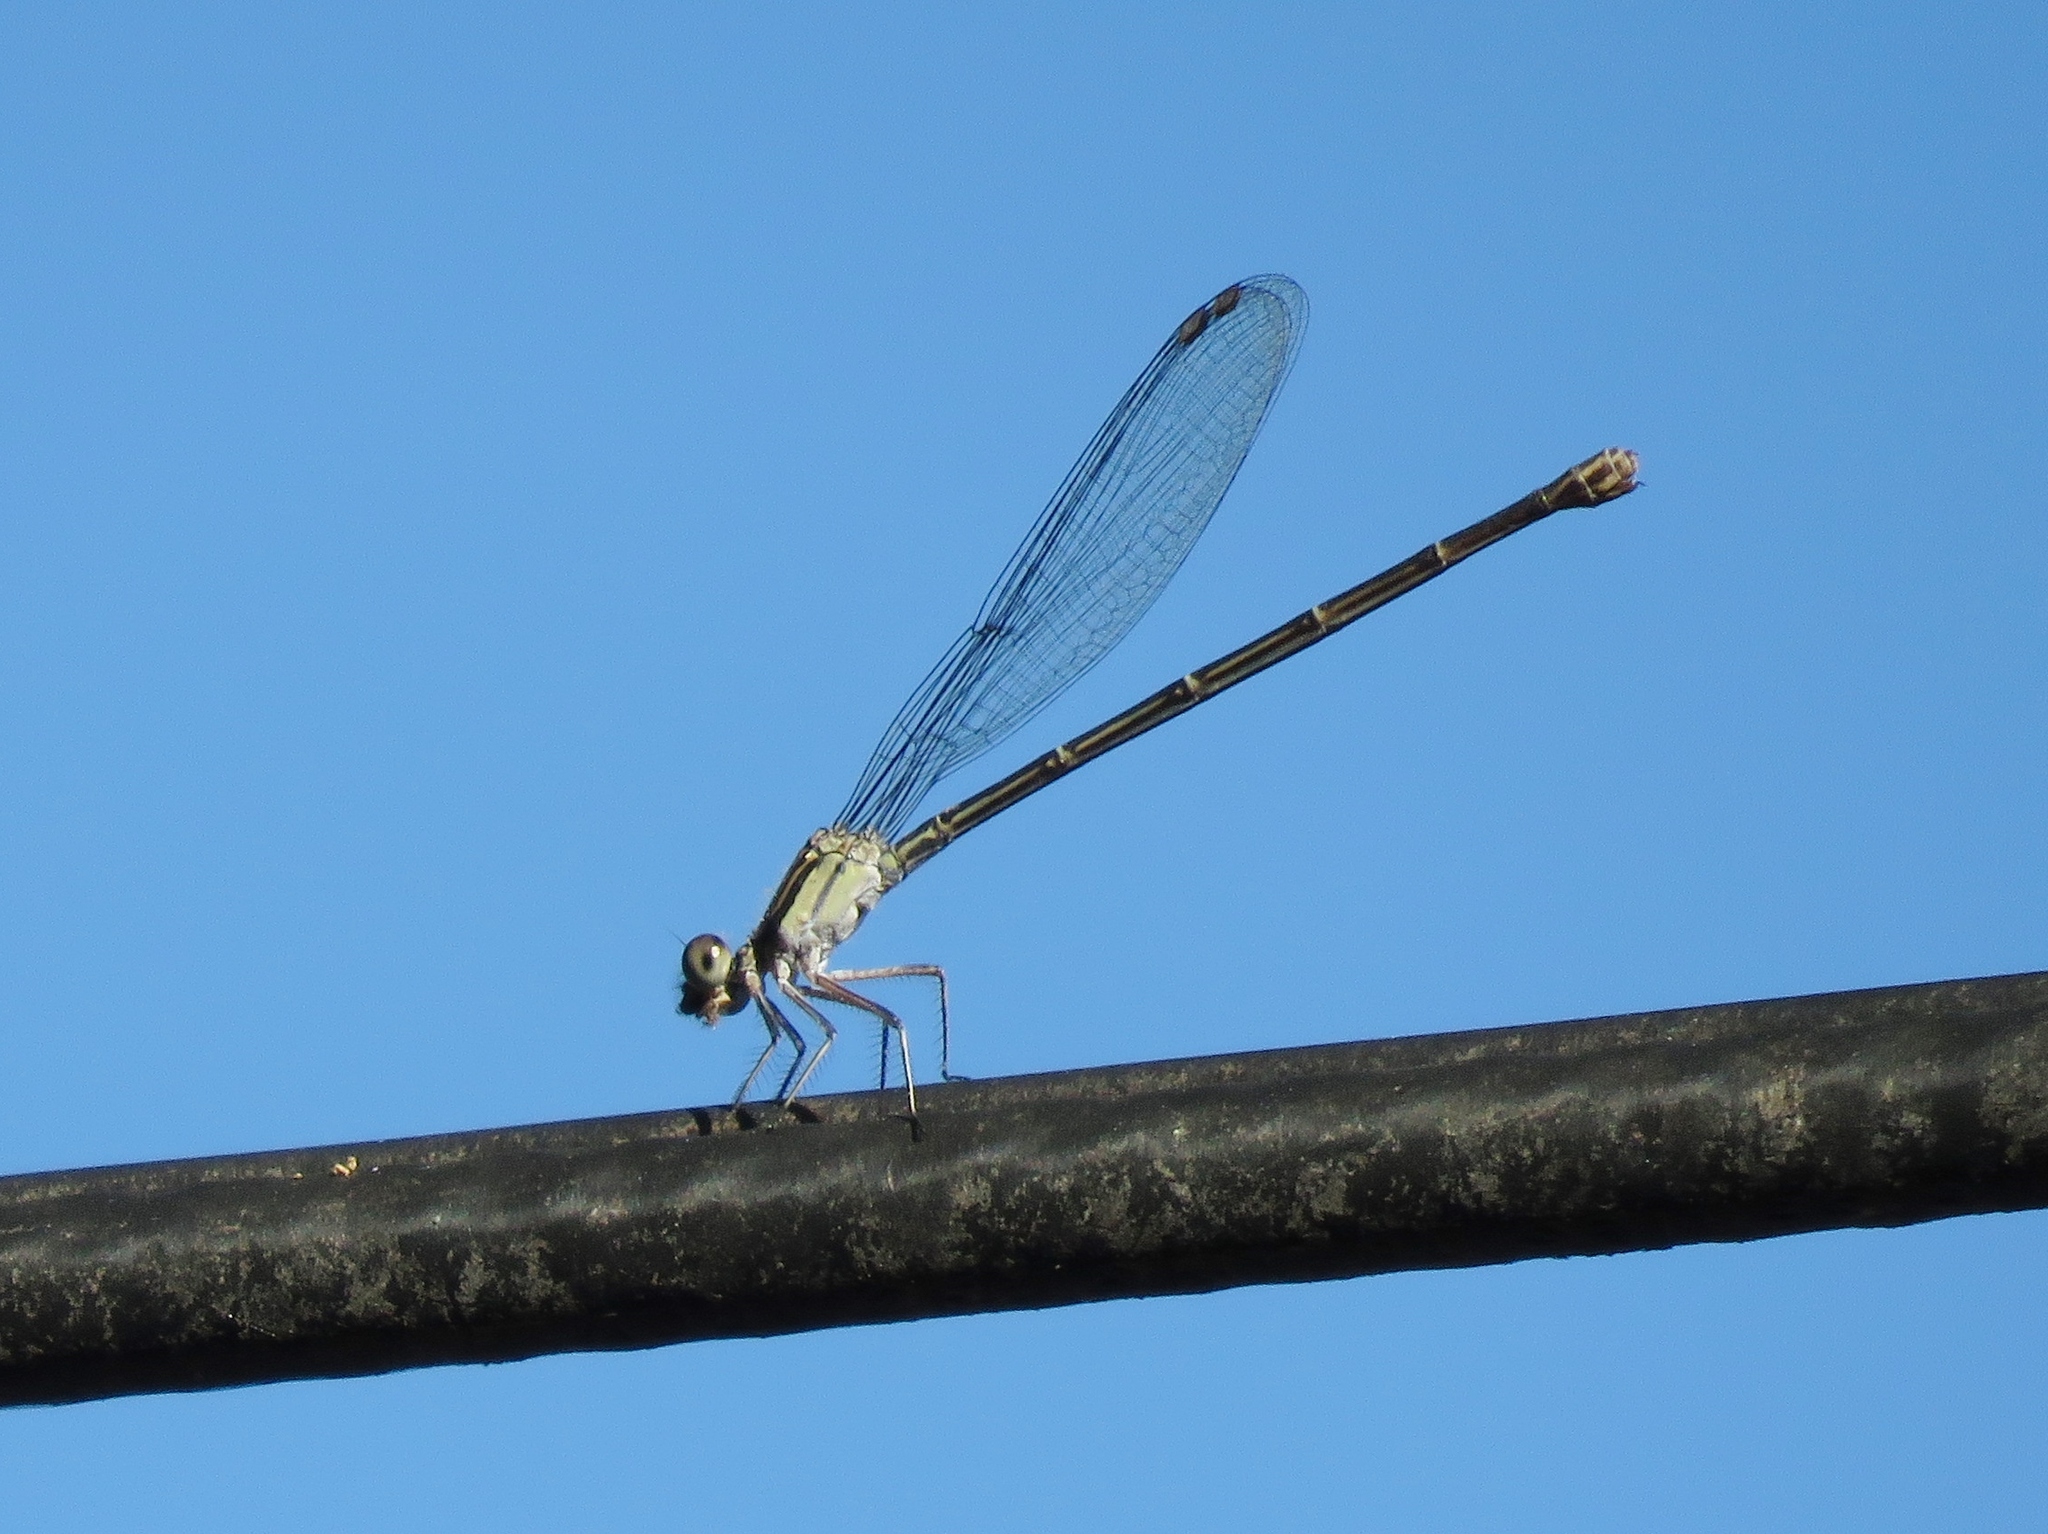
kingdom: Animalia
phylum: Arthropoda
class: Insecta
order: Odonata
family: Coenagrionidae
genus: Argia
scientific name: Argia translata
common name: Dusky dancer
